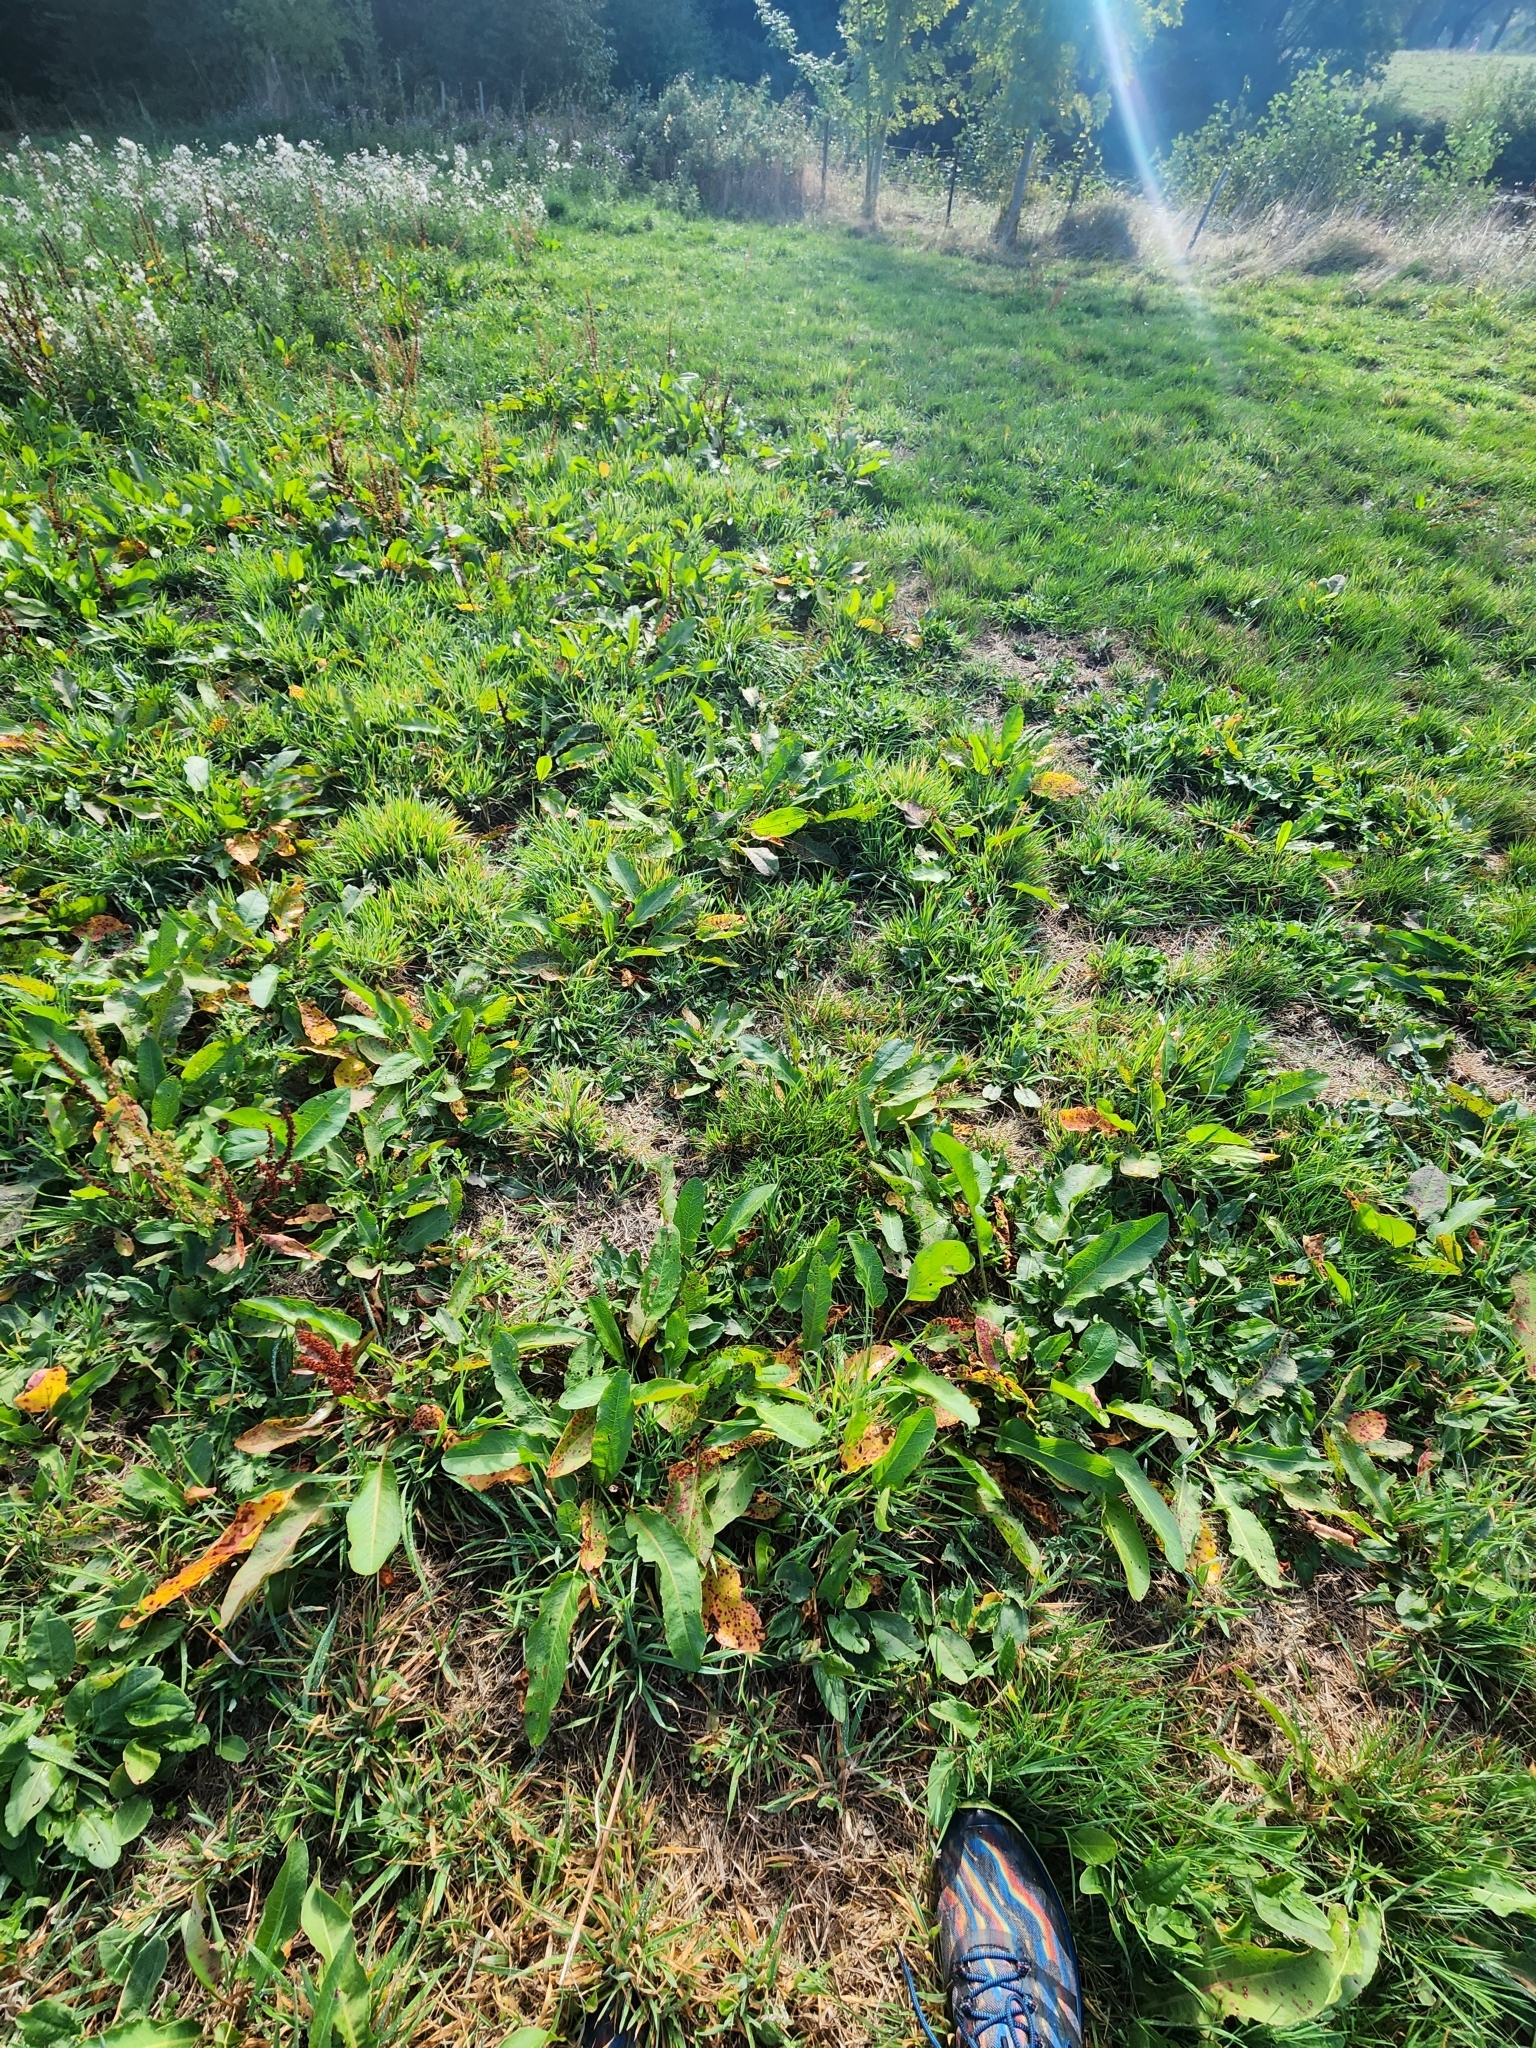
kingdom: Plantae
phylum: Tracheophyta
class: Magnoliopsida
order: Caryophyllales
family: Polygonaceae
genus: Rumex
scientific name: Rumex crispus
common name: Curled dock
